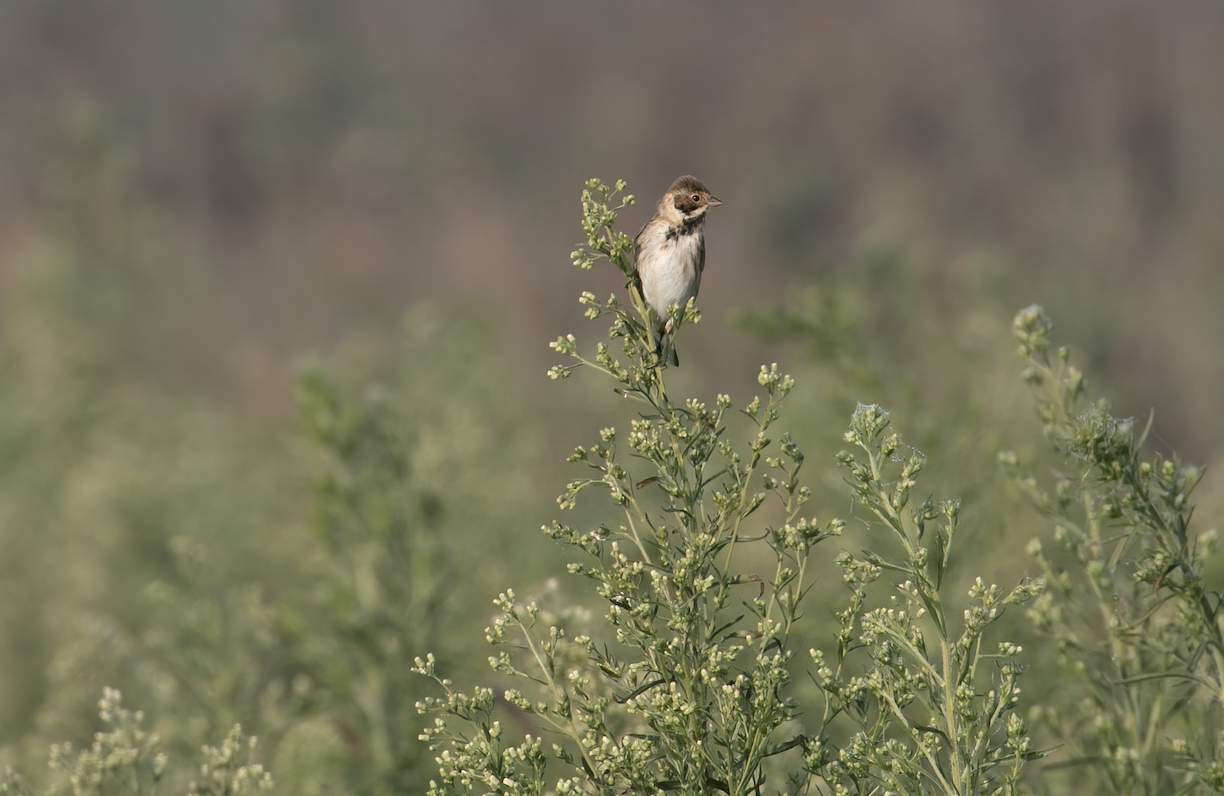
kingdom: Animalia
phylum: Chordata
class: Aves
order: Passeriformes
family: Emberizidae
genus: Emberiza
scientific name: Emberiza schoeniclus
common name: Reed bunting
